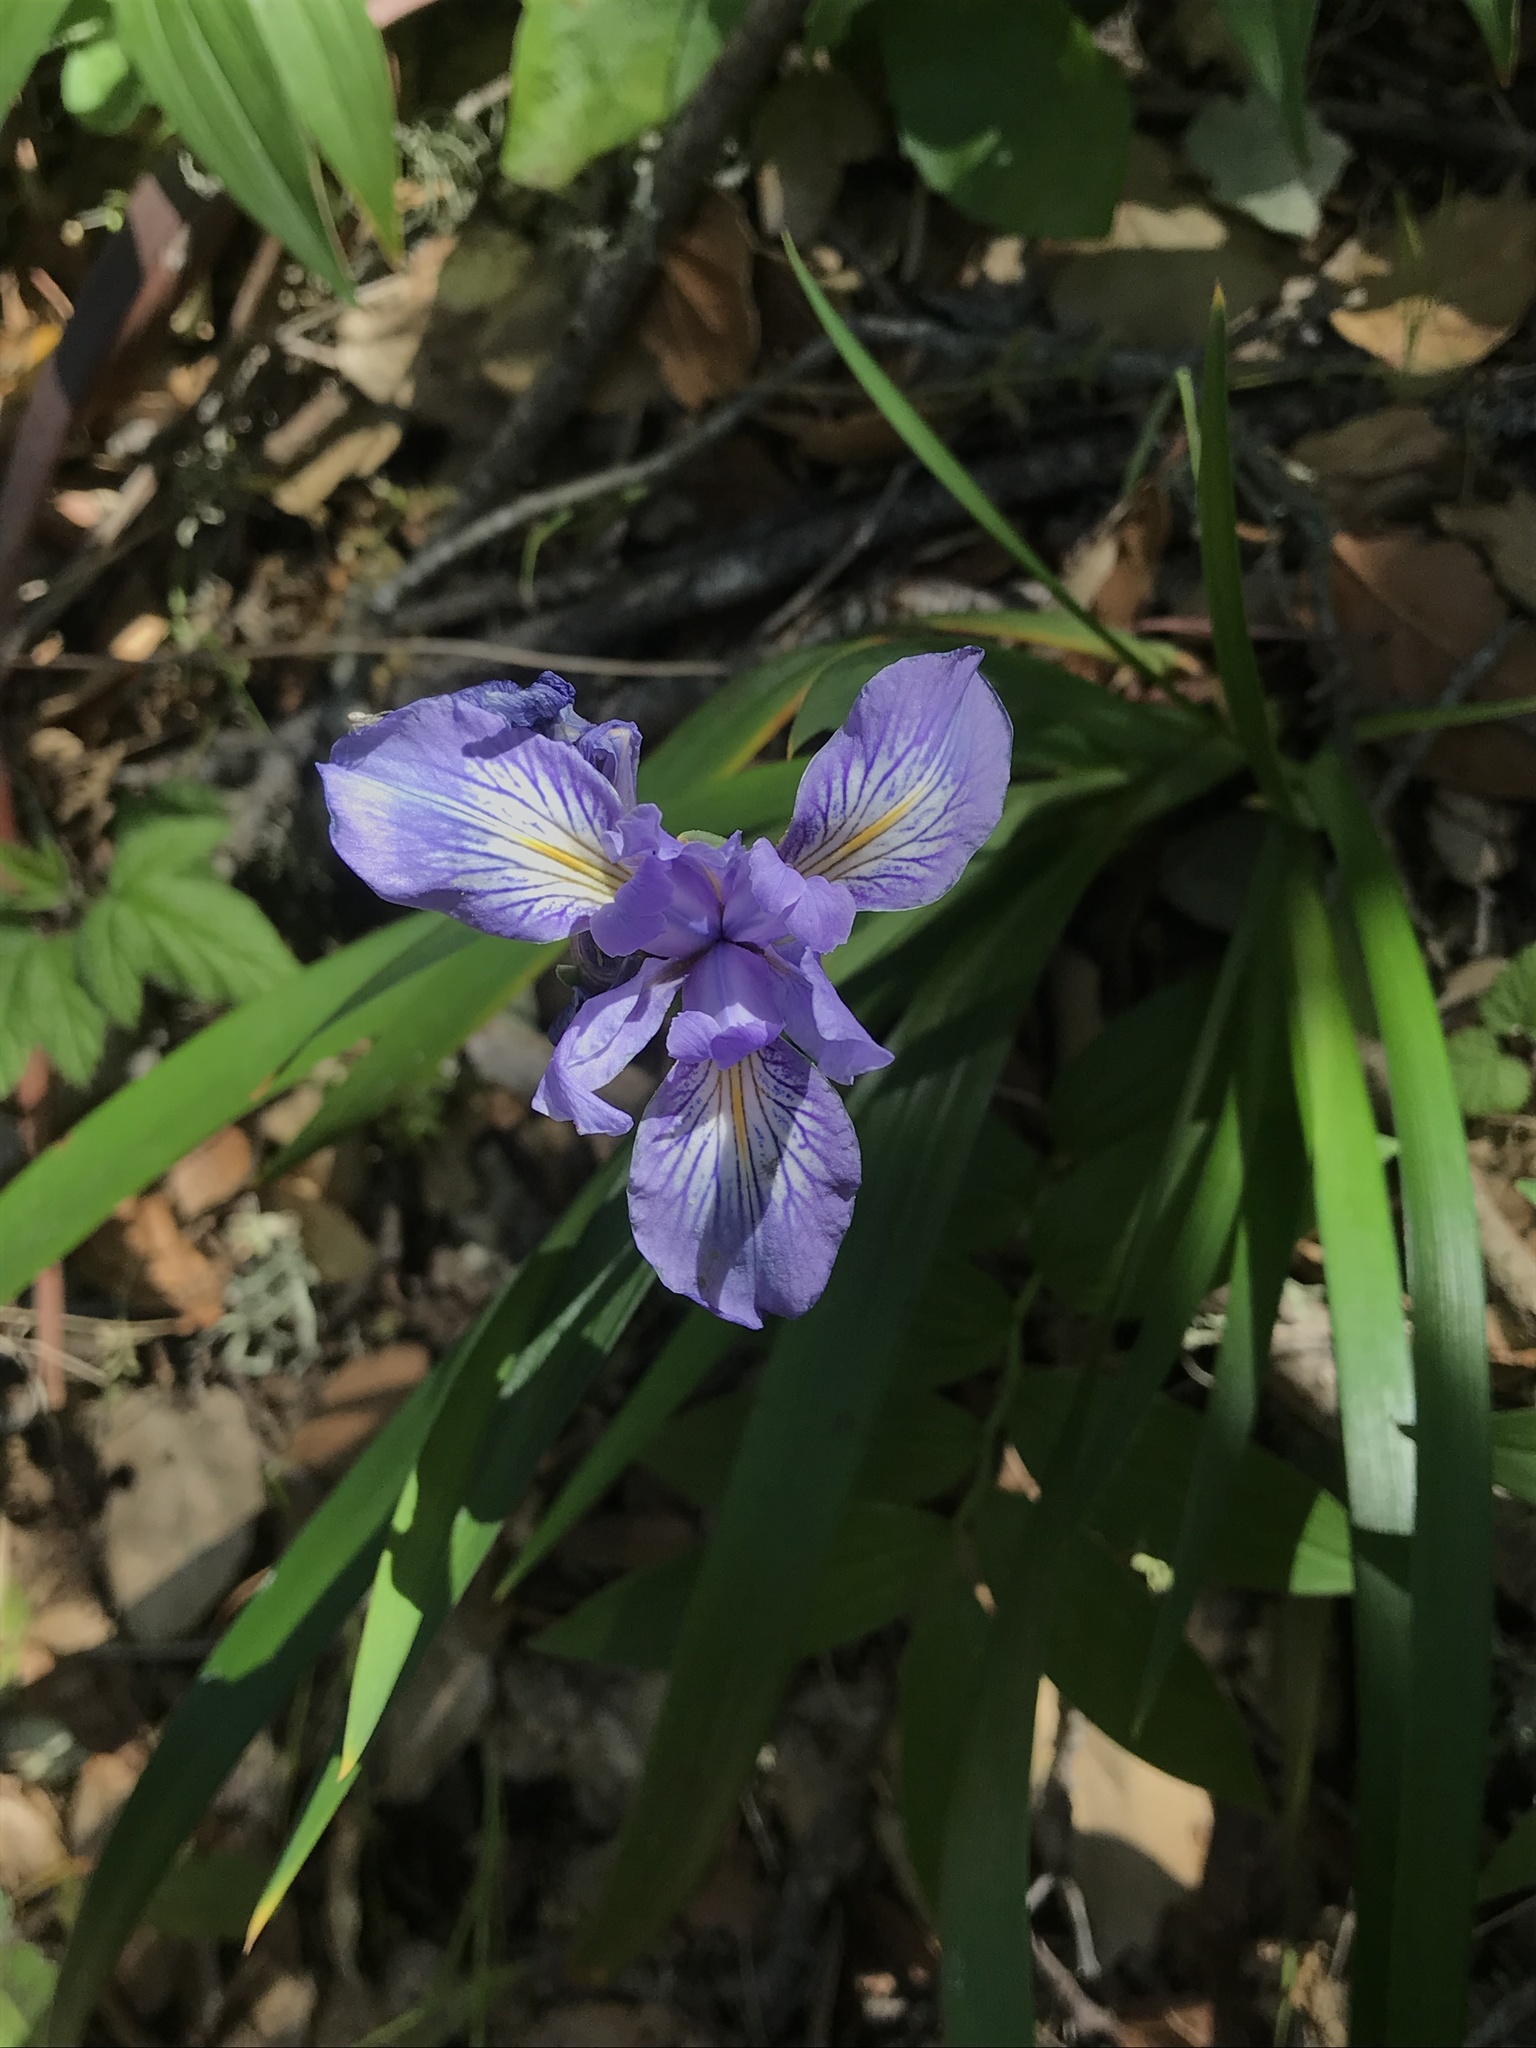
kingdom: Plantae
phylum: Tracheophyta
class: Liliopsida
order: Asparagales
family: Iridaceae
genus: Iris
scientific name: Iris douglasiana
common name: Marin iris
